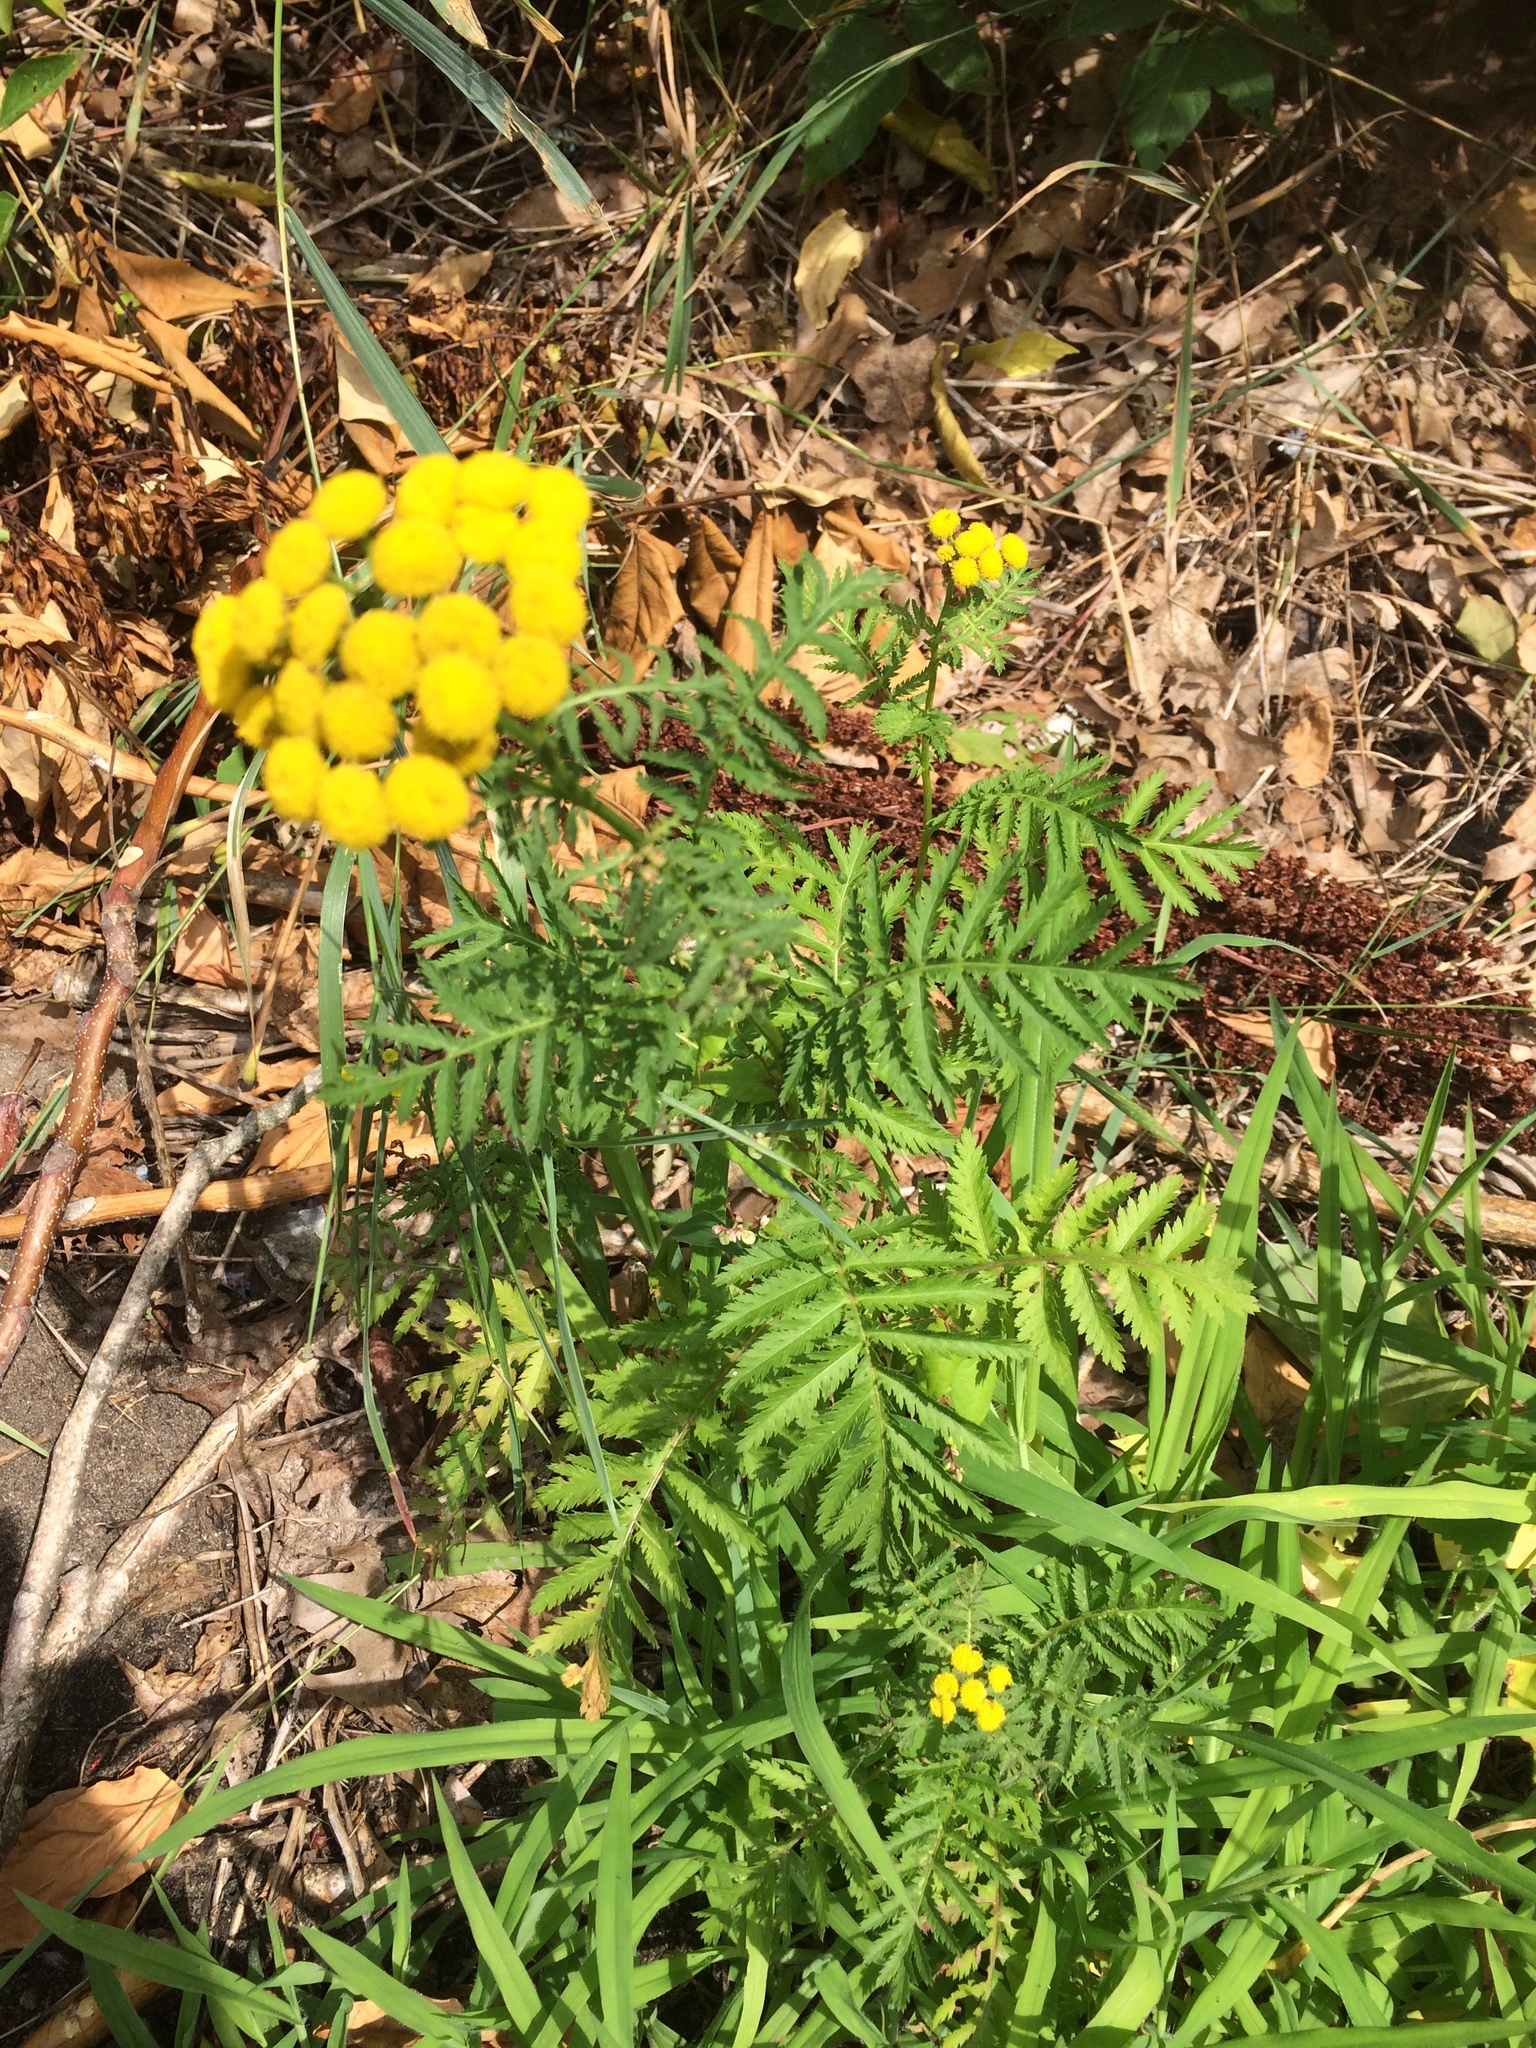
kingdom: Plantae
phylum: Tracheophyta
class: Magnoliopsida
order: Asterales
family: Asteraceae
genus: Tanacetum
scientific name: Tanacetum vulgare
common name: Common tansy
